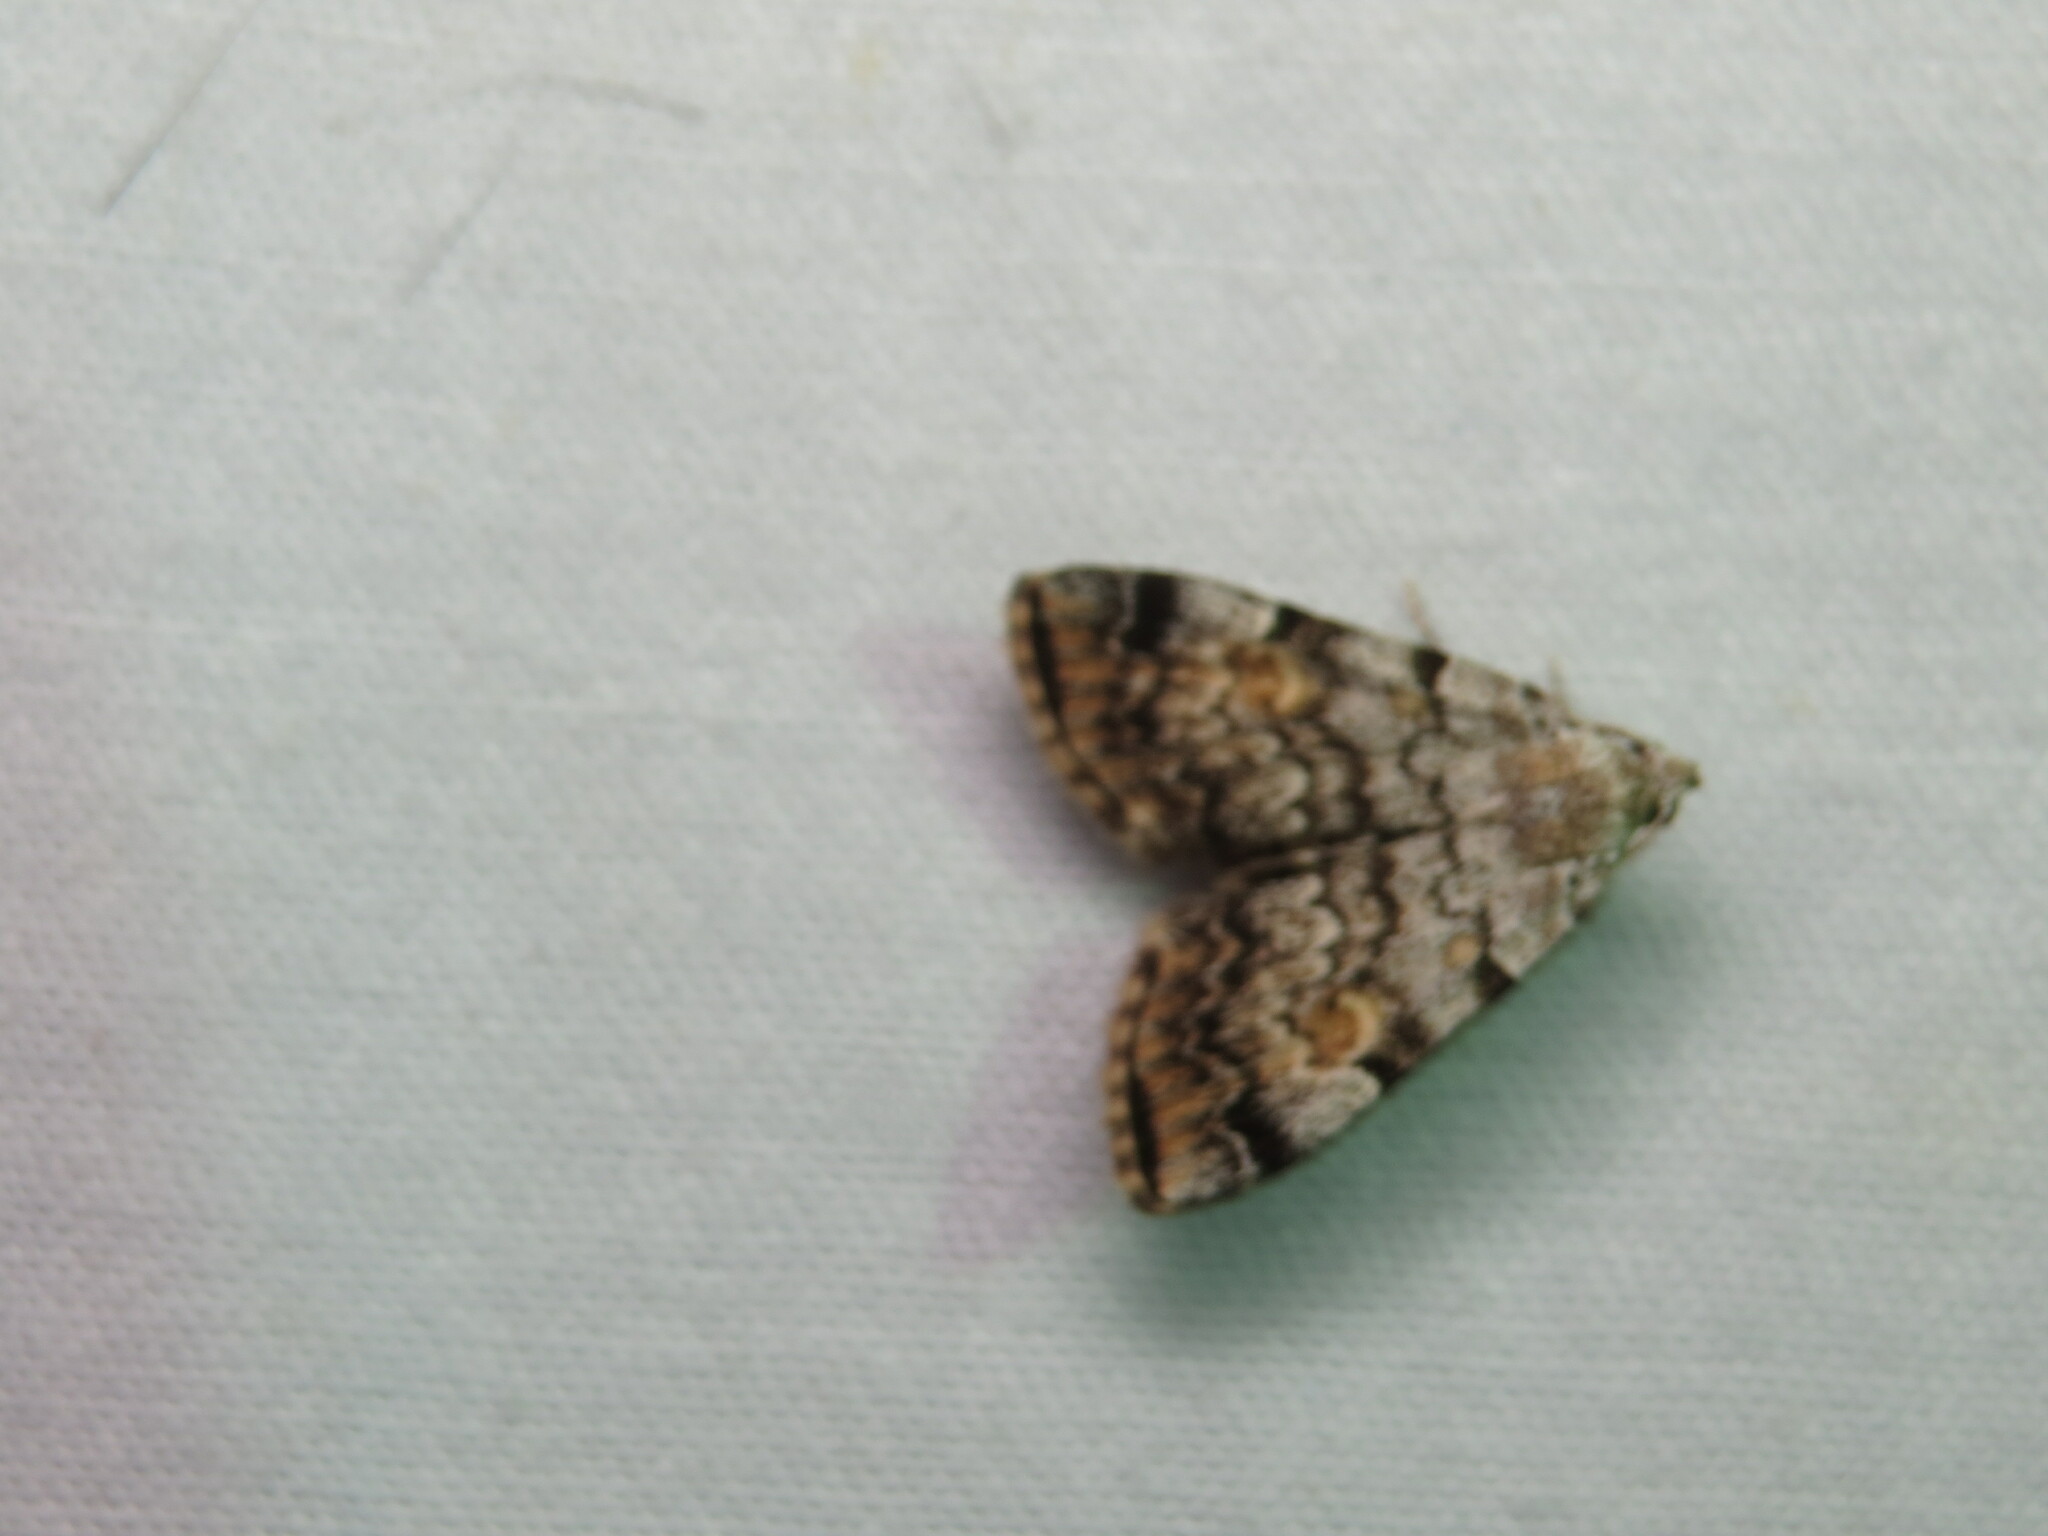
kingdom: Animalia
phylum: Arthropoda
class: Insecta
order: Lepidoptera
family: Erebidae
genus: Idia
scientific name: Idia americalis
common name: American idia moth
